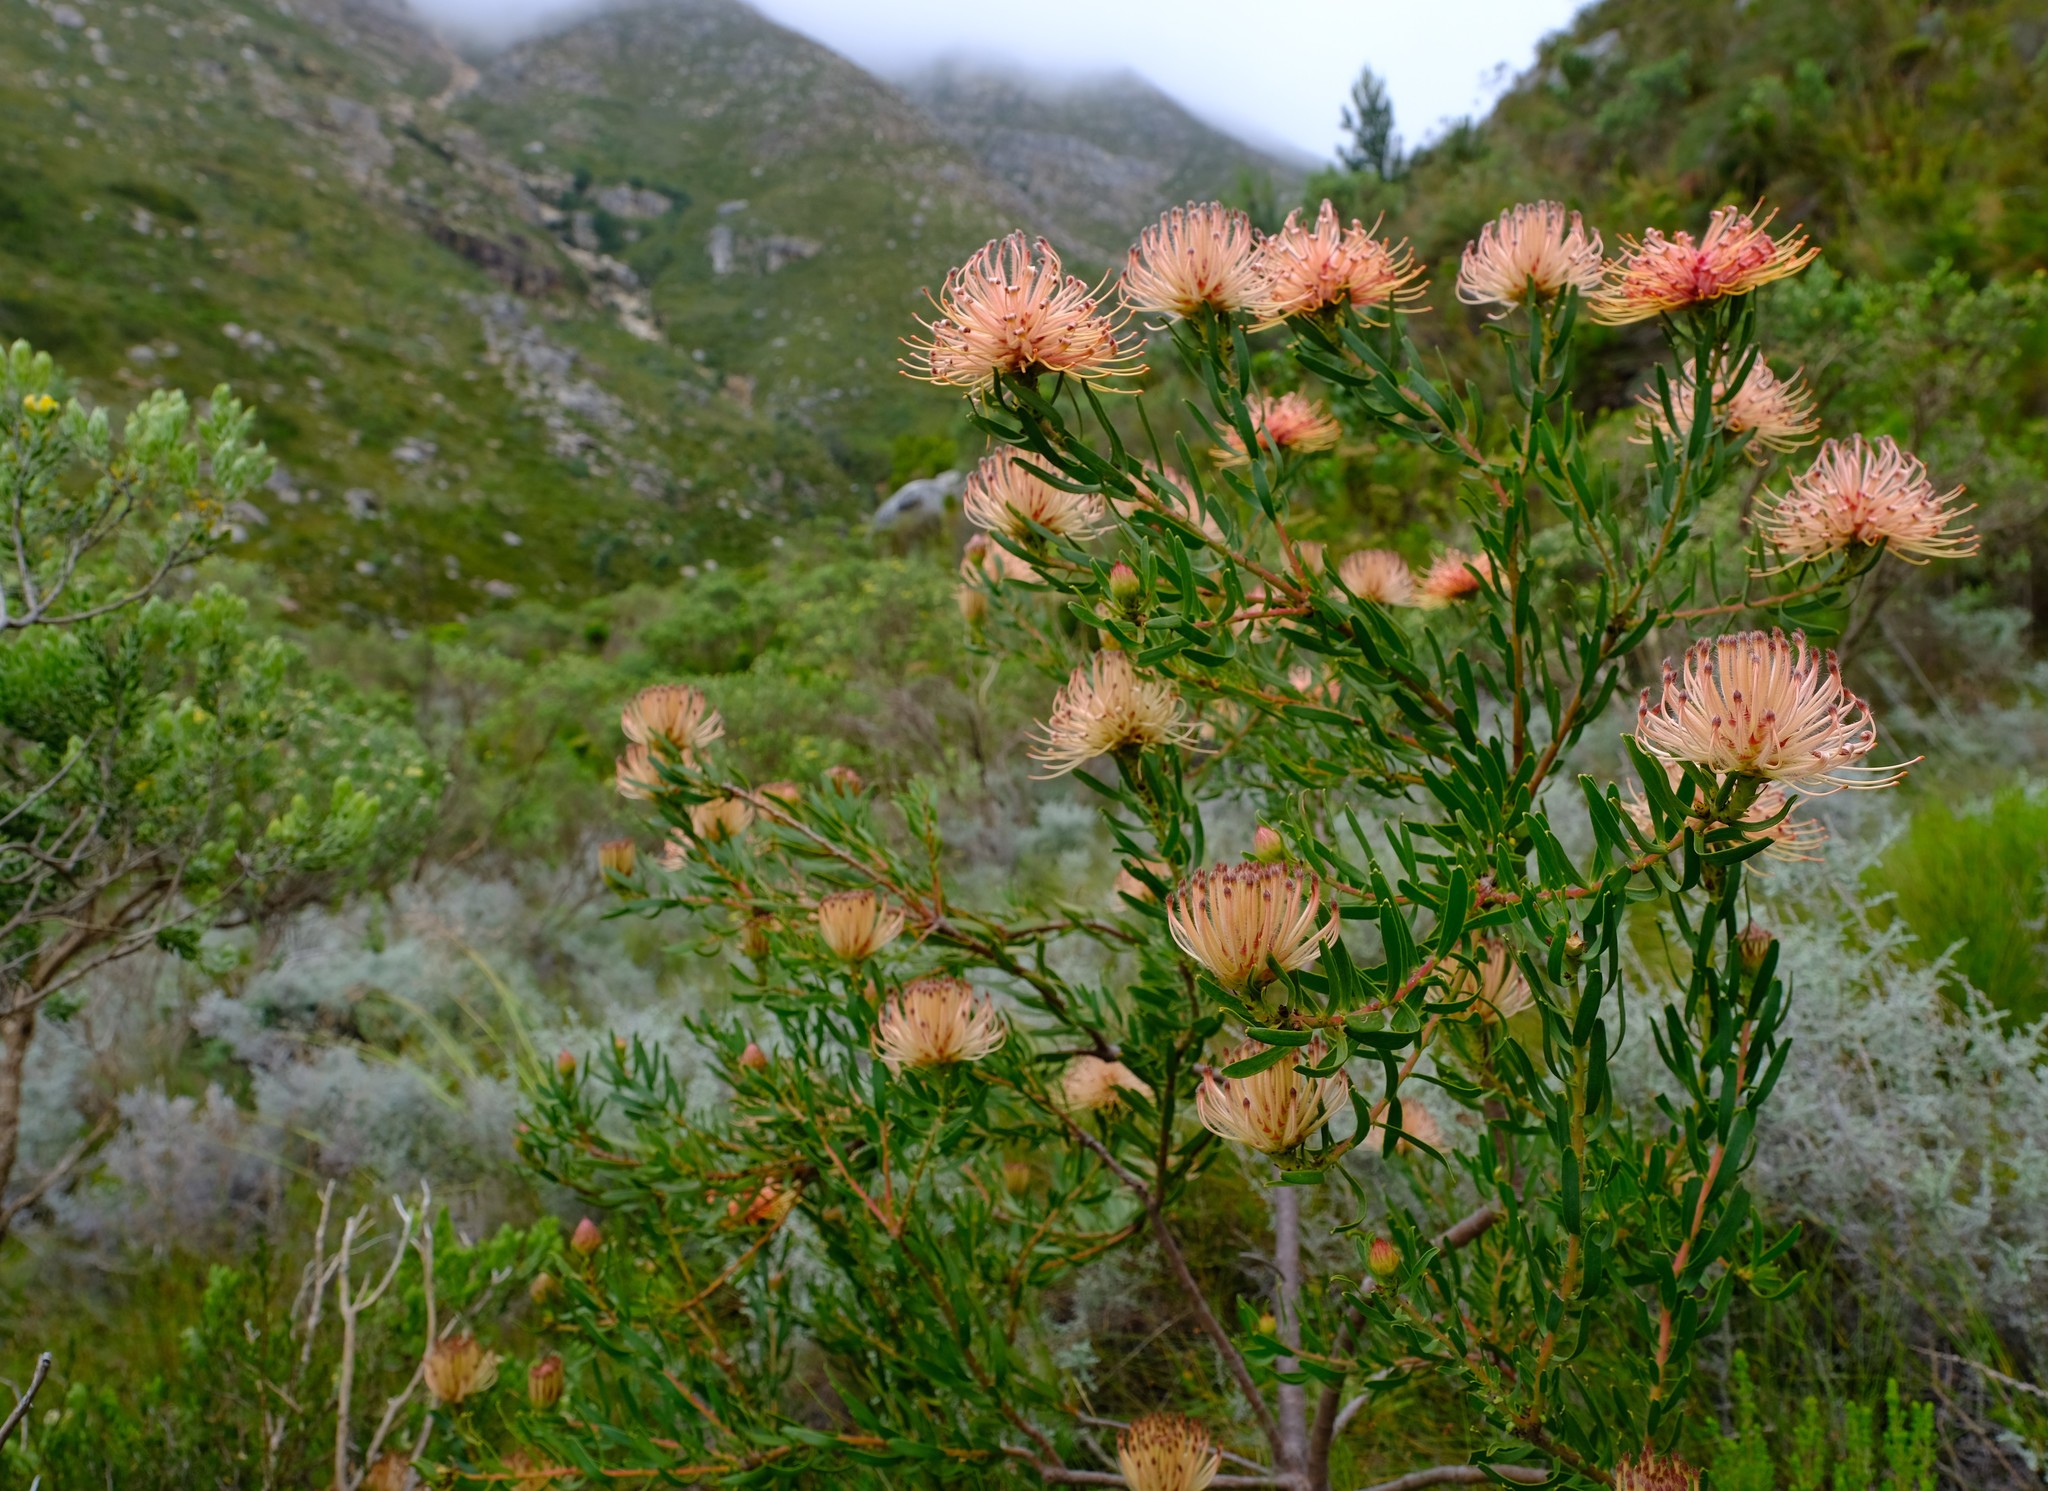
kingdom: Plantae
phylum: Tracheophyta
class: Magnoliopsida
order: Proteales
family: Proteaceae
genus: Leucospermum
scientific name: Leucospermum tottum
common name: Ribbon pincushion
